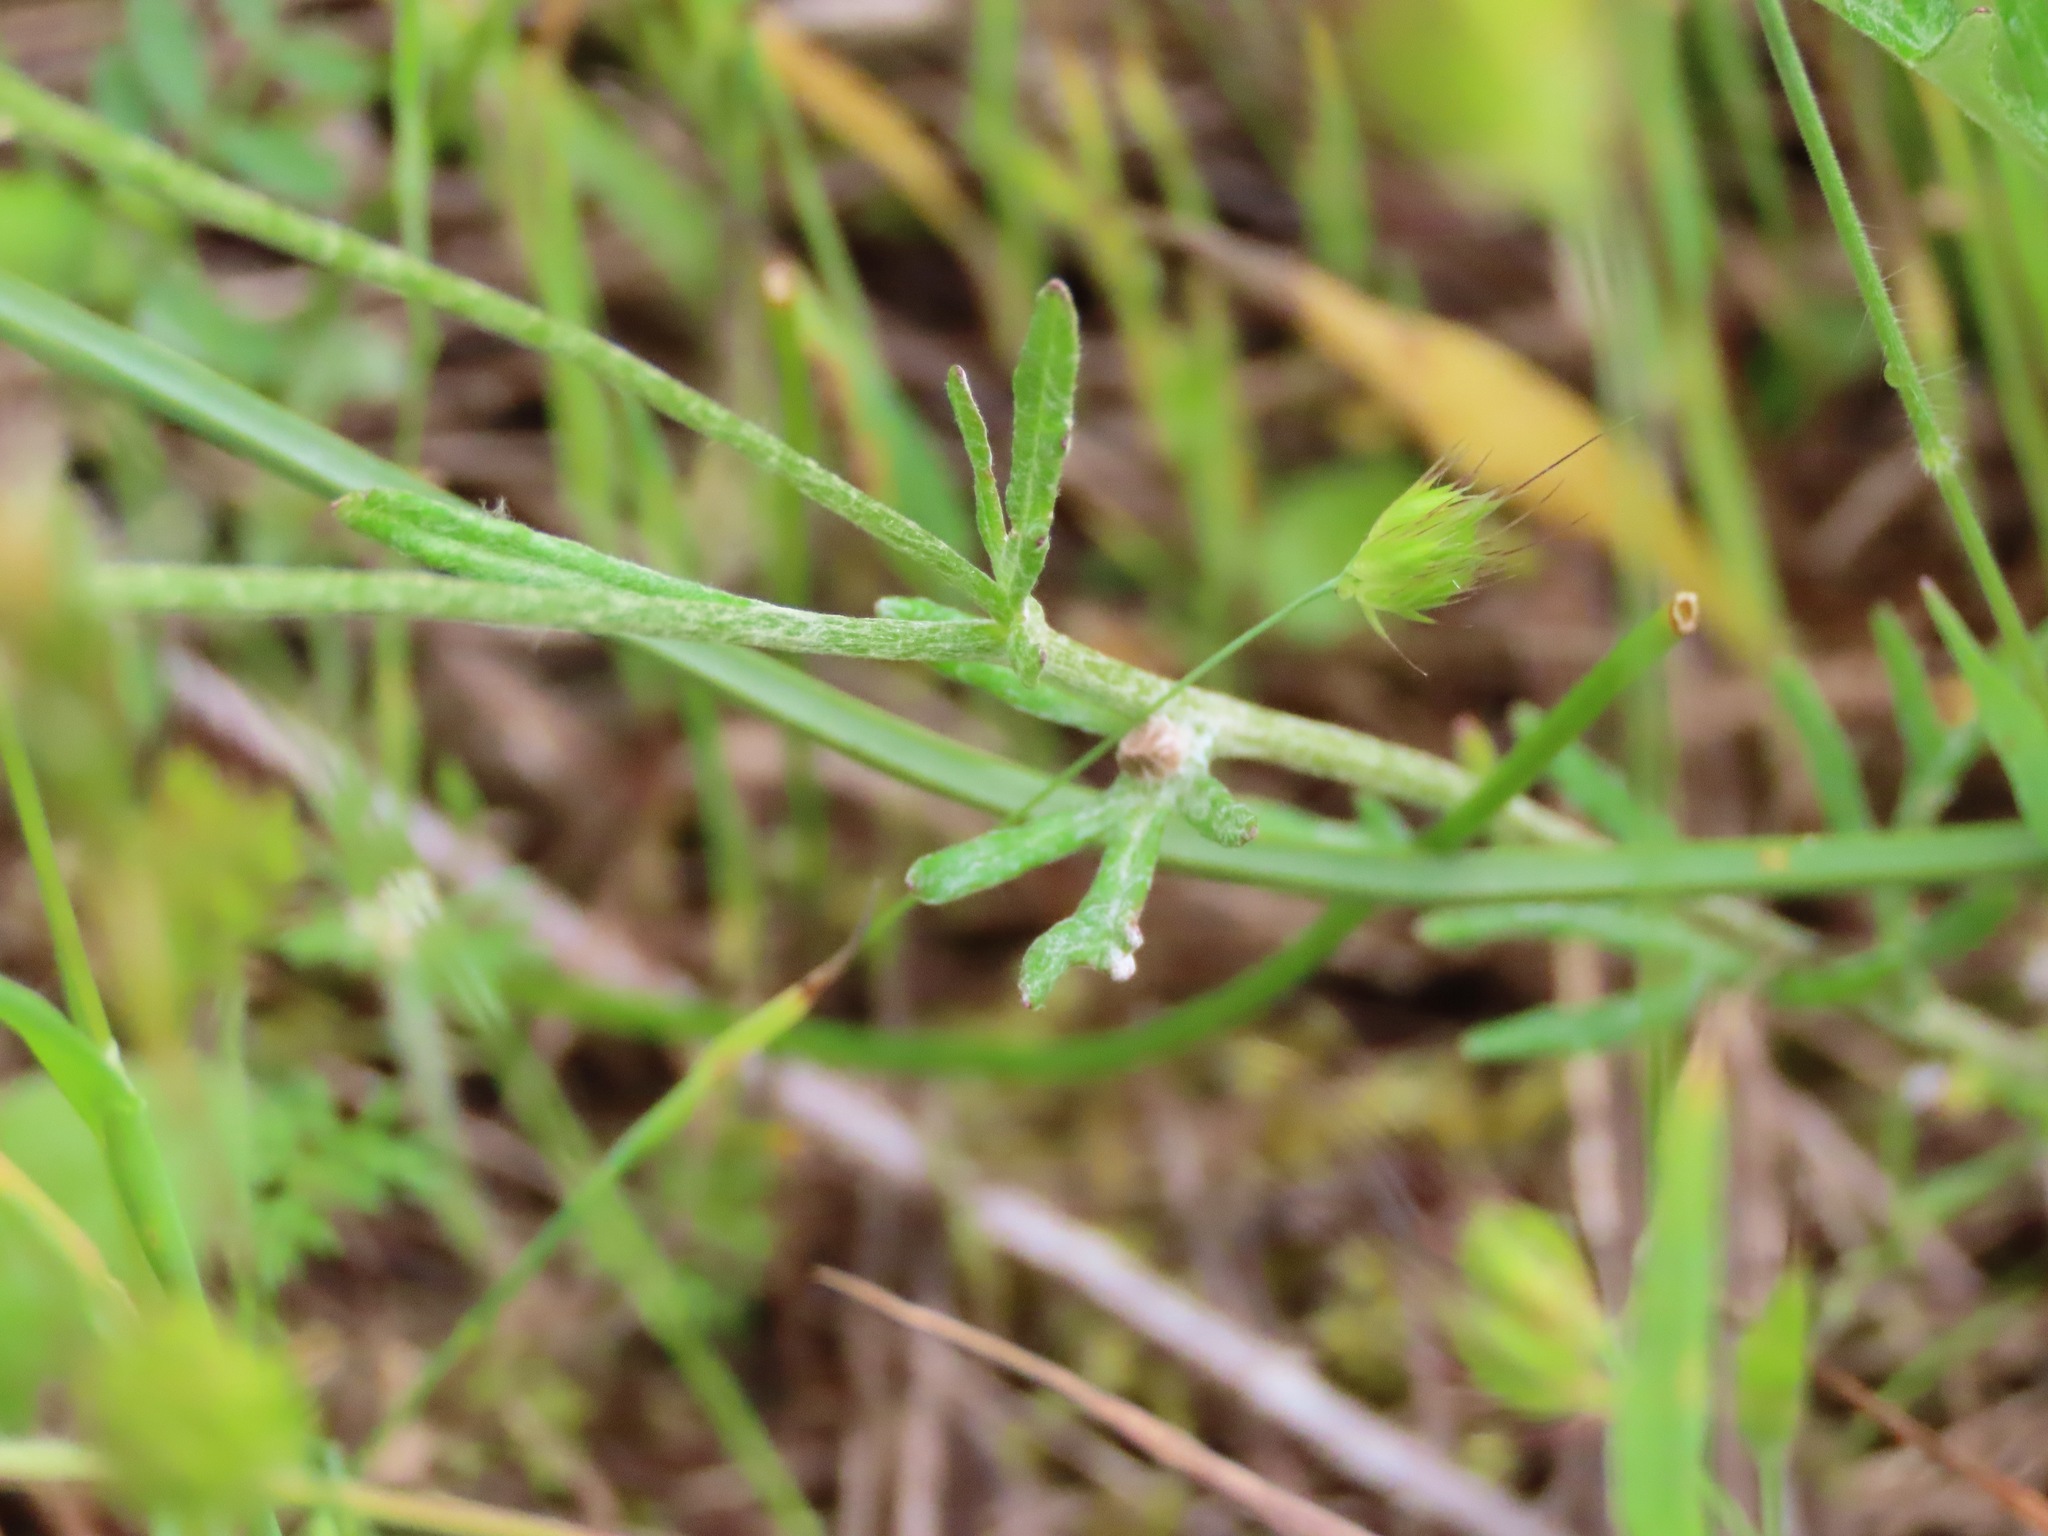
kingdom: Plantae
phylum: Tracheophyta
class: Magnoliopsida
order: Asterales
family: Asteraceae
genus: Eriophyllum
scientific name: Eriophyllum lanatum
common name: Common woolly-sunflower
